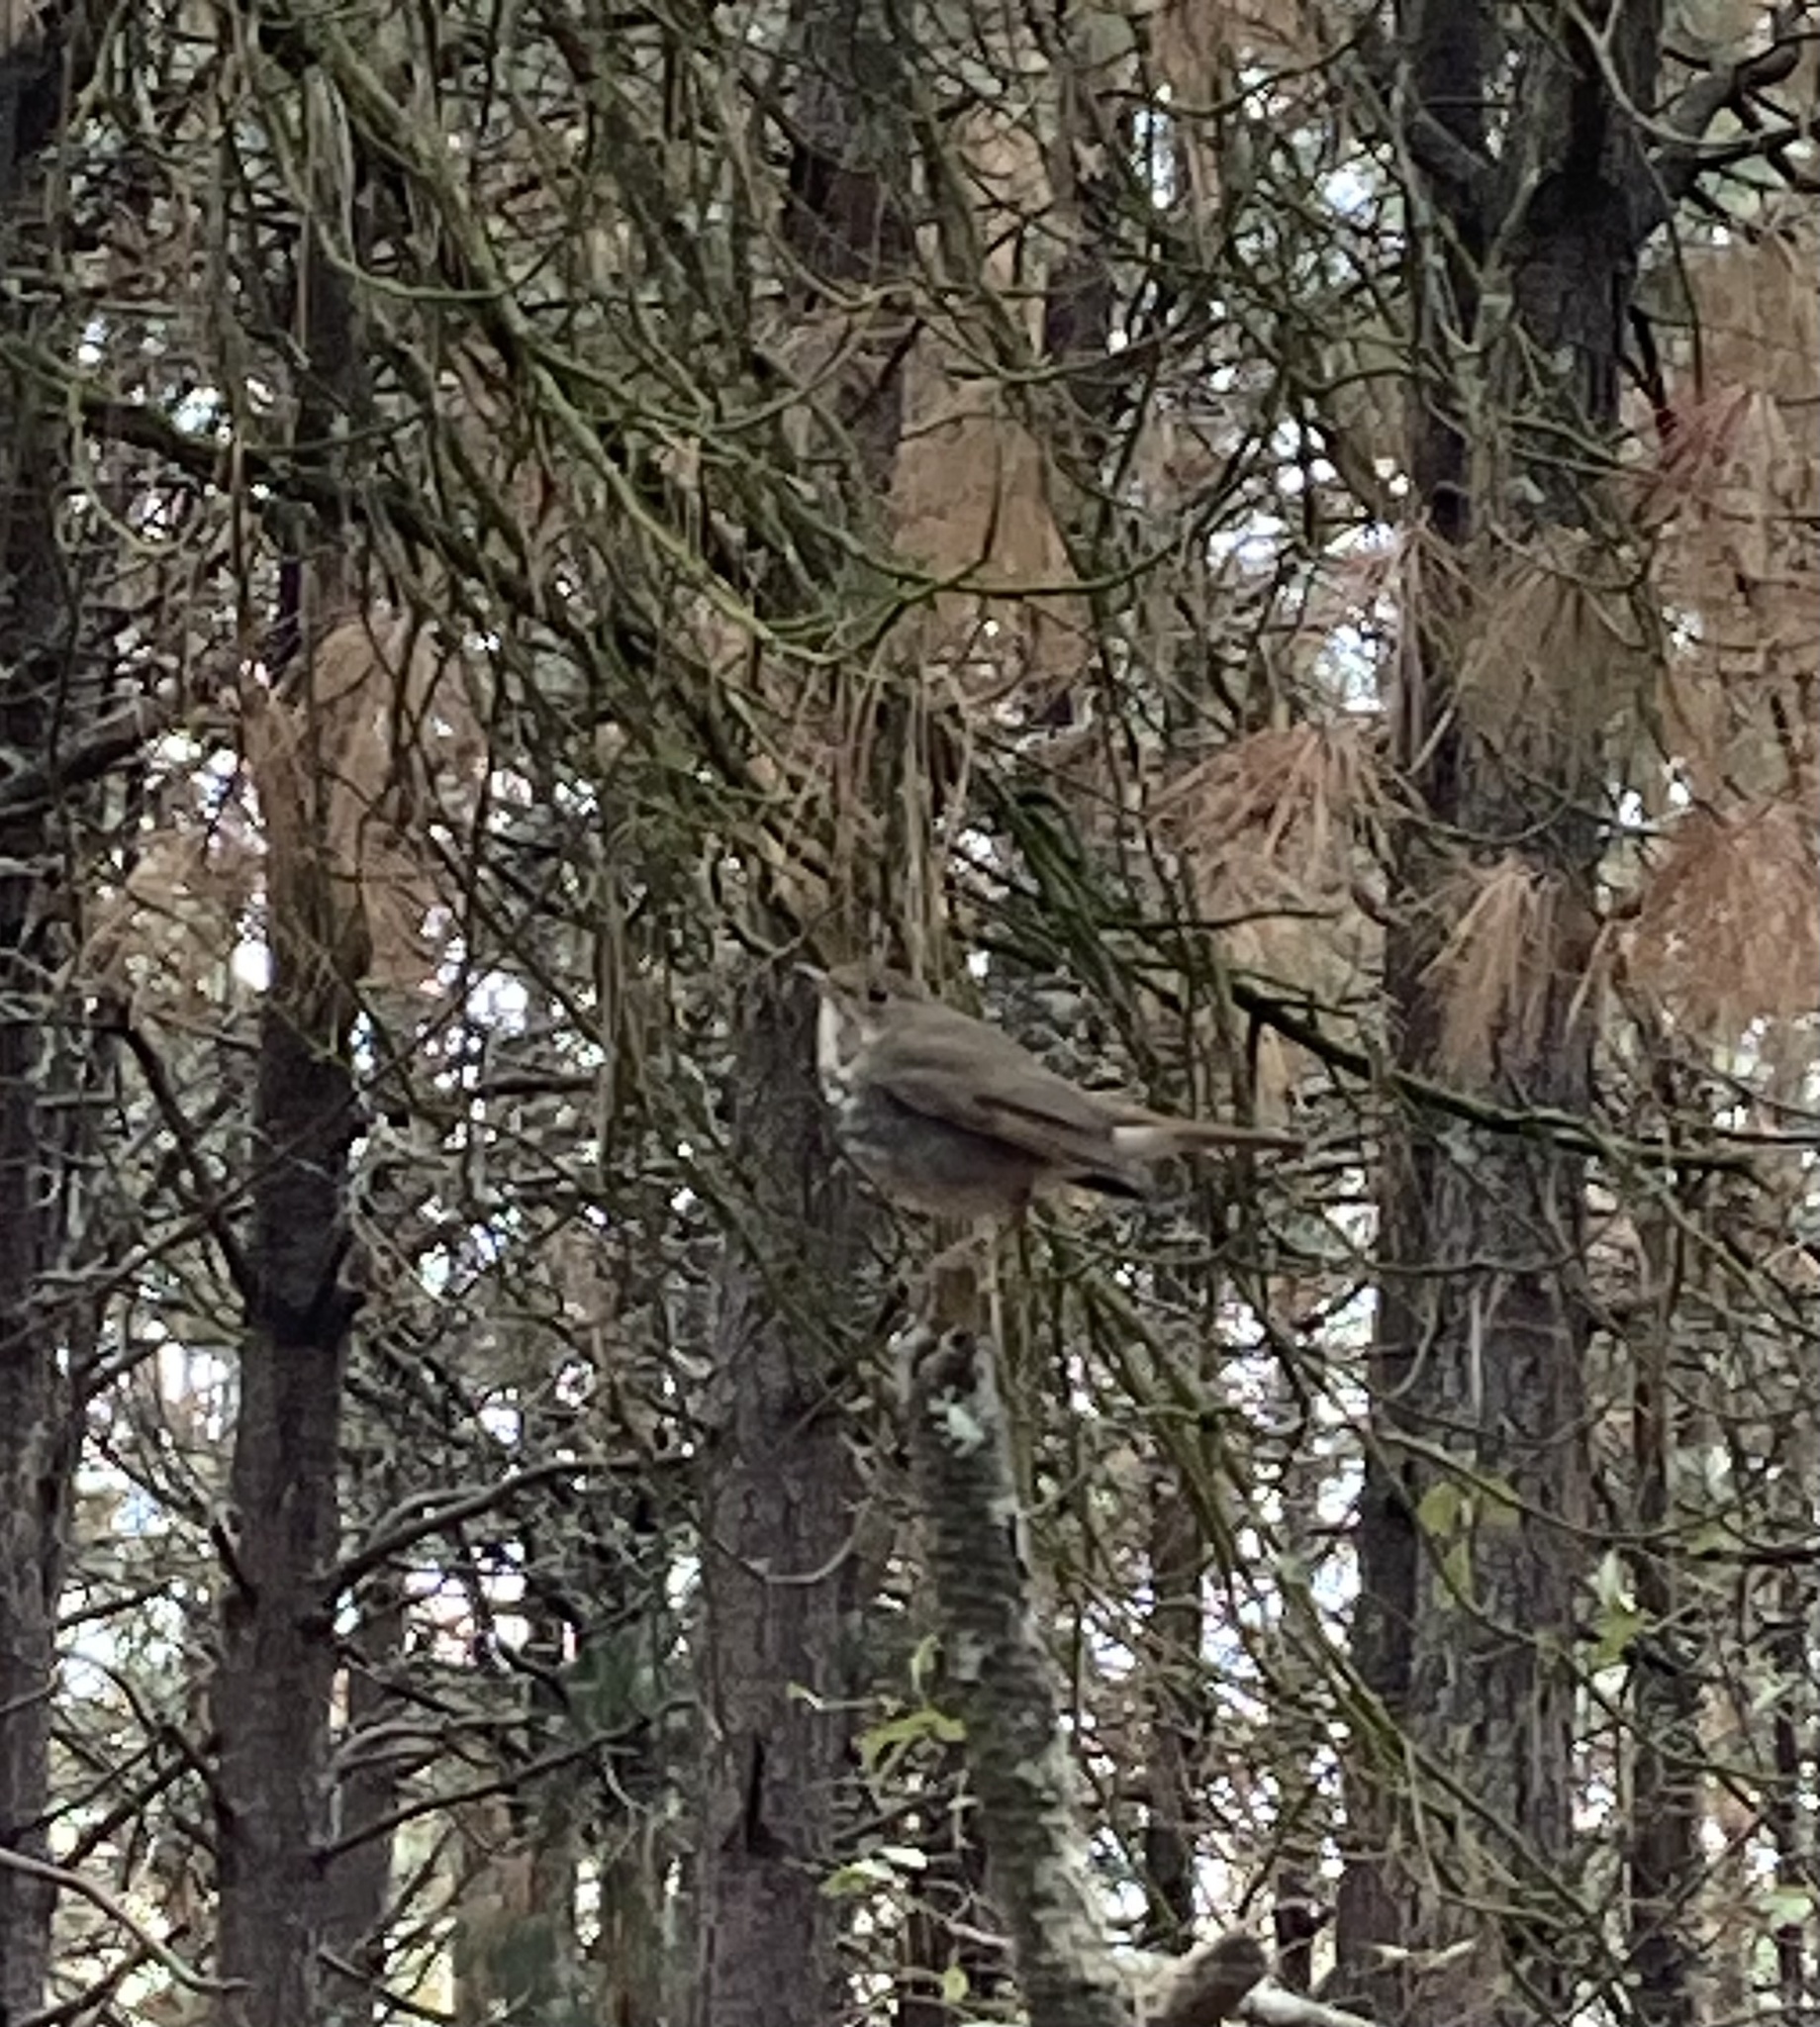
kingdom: Animalia
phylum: Chordata
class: Aves
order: Passeriformes
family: Turdidae
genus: Catharus
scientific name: Catharus guttatus
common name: Hermit thrush
